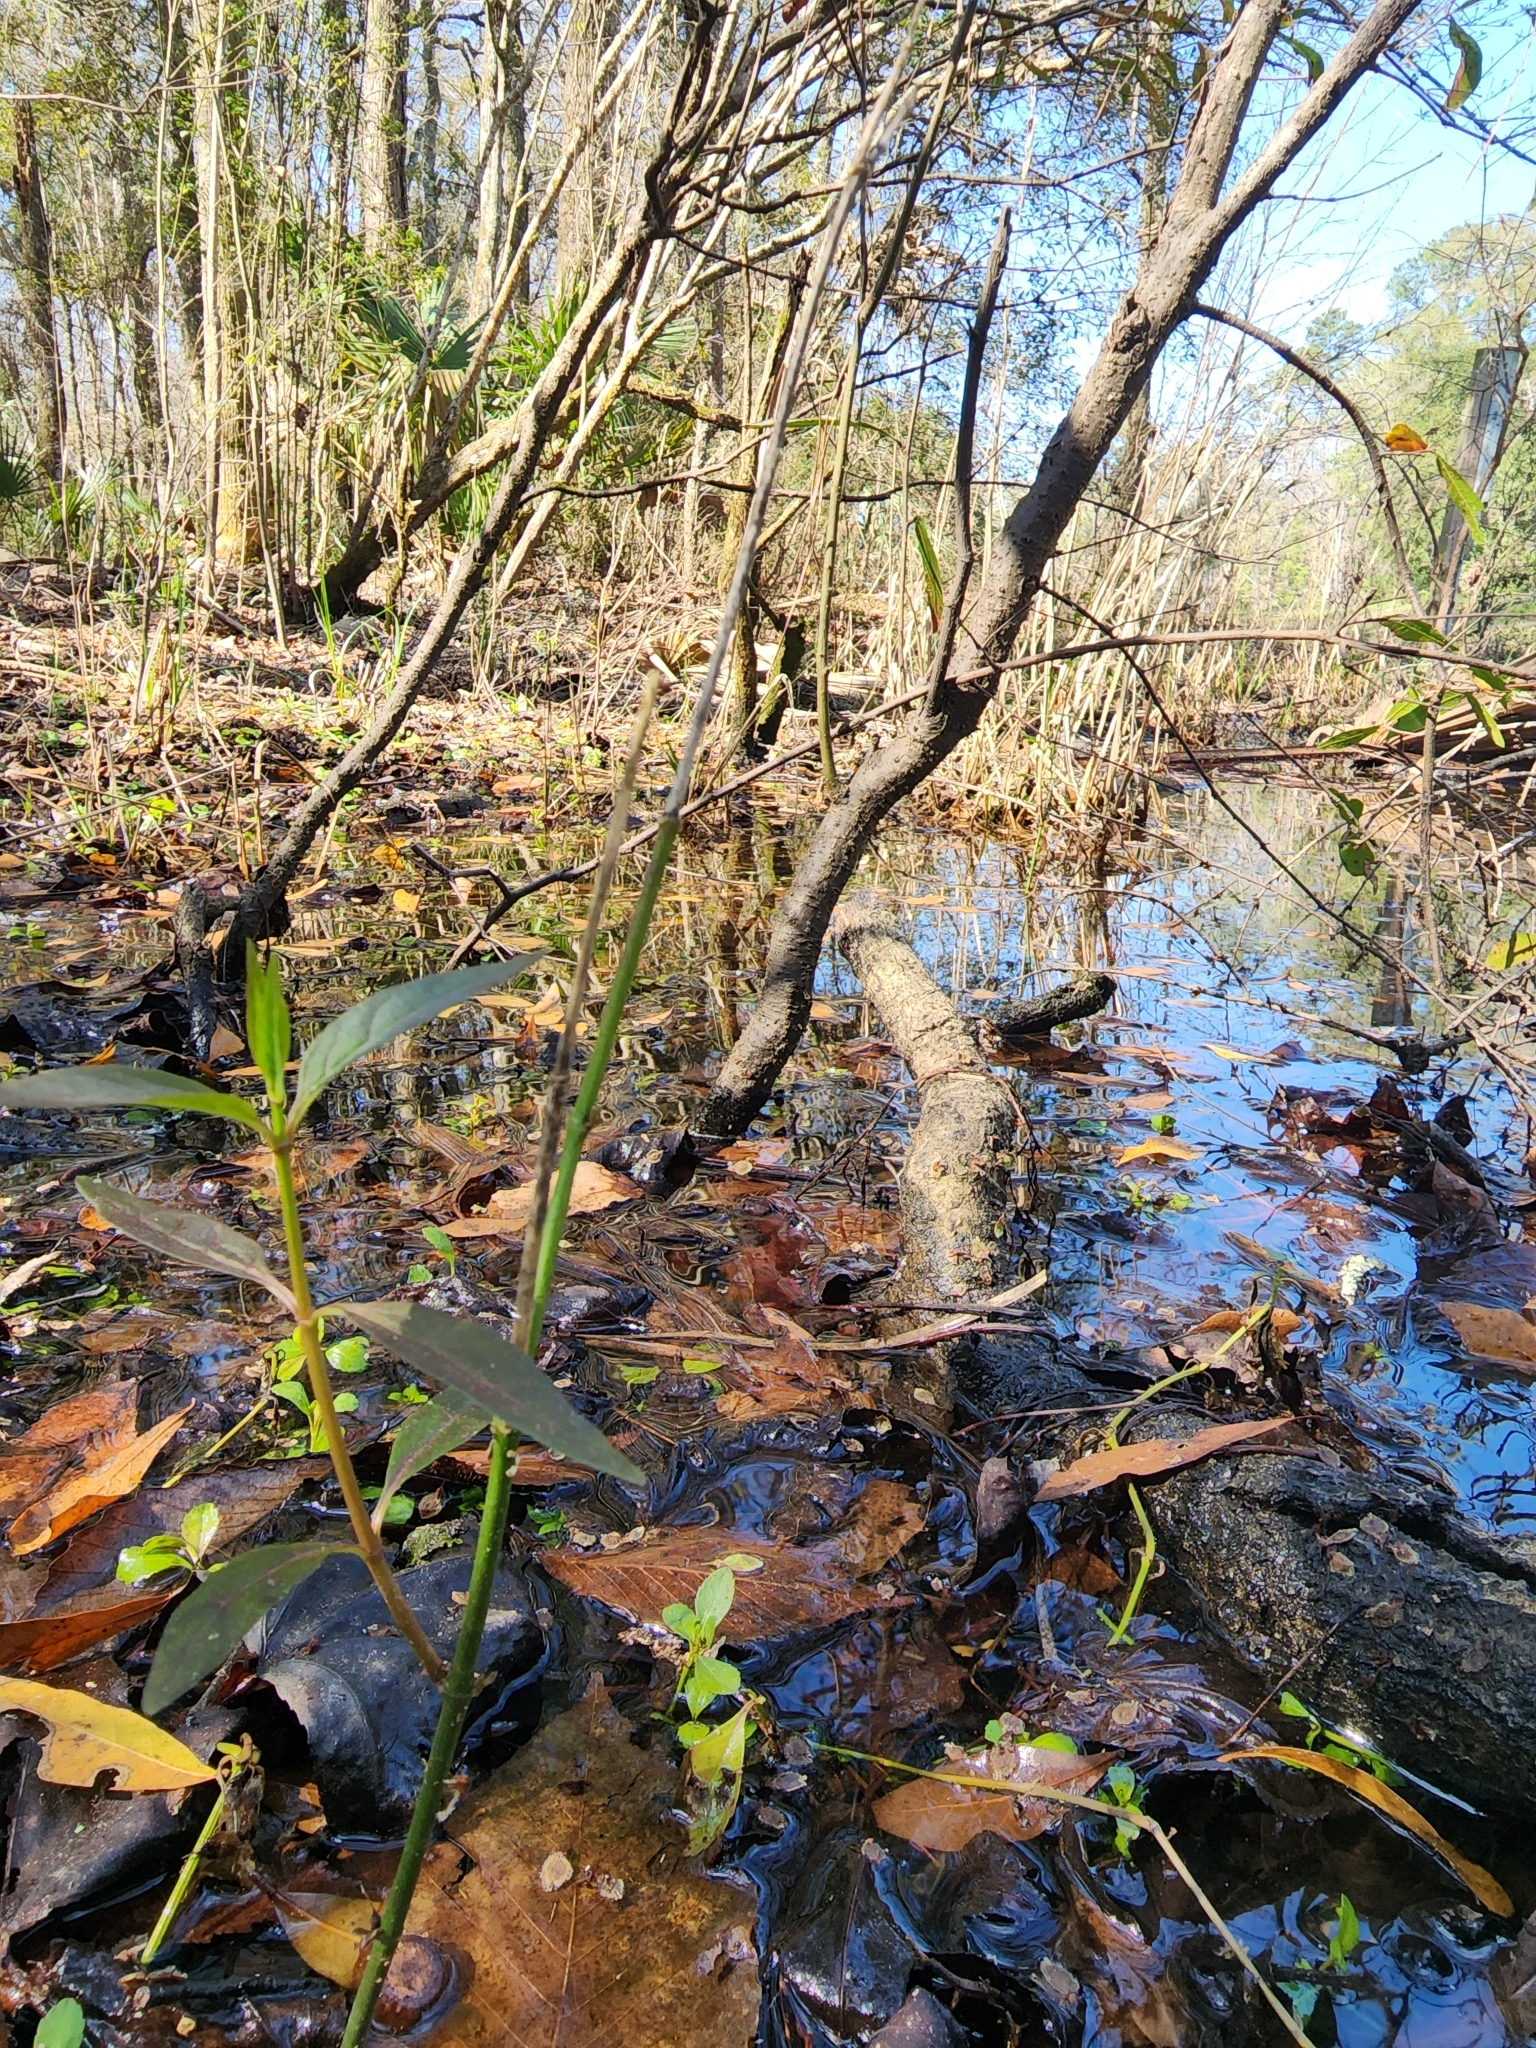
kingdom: Plantae
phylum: Tracheophyta
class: Magnoliopsida
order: Gentianales
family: Apocynaceae
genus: Asclepias
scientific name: Asclepias perennis
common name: Smooth-seed milkweed
